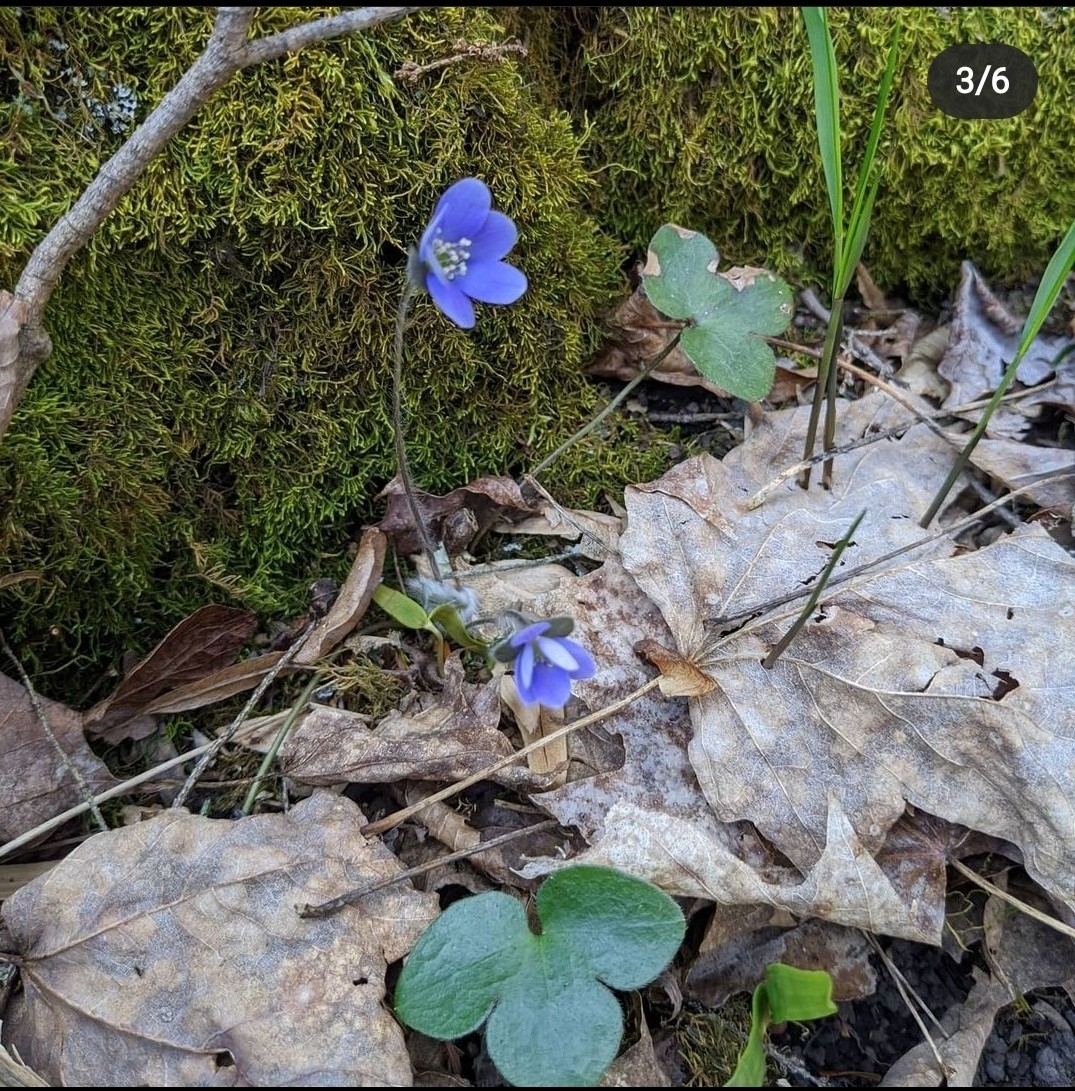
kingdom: Plantae
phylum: Tracheophyta
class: Magnoliopsida
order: Ranunculales
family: Ranunculaceae
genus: Hepatica
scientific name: Hepatica americana
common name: American hepatica
